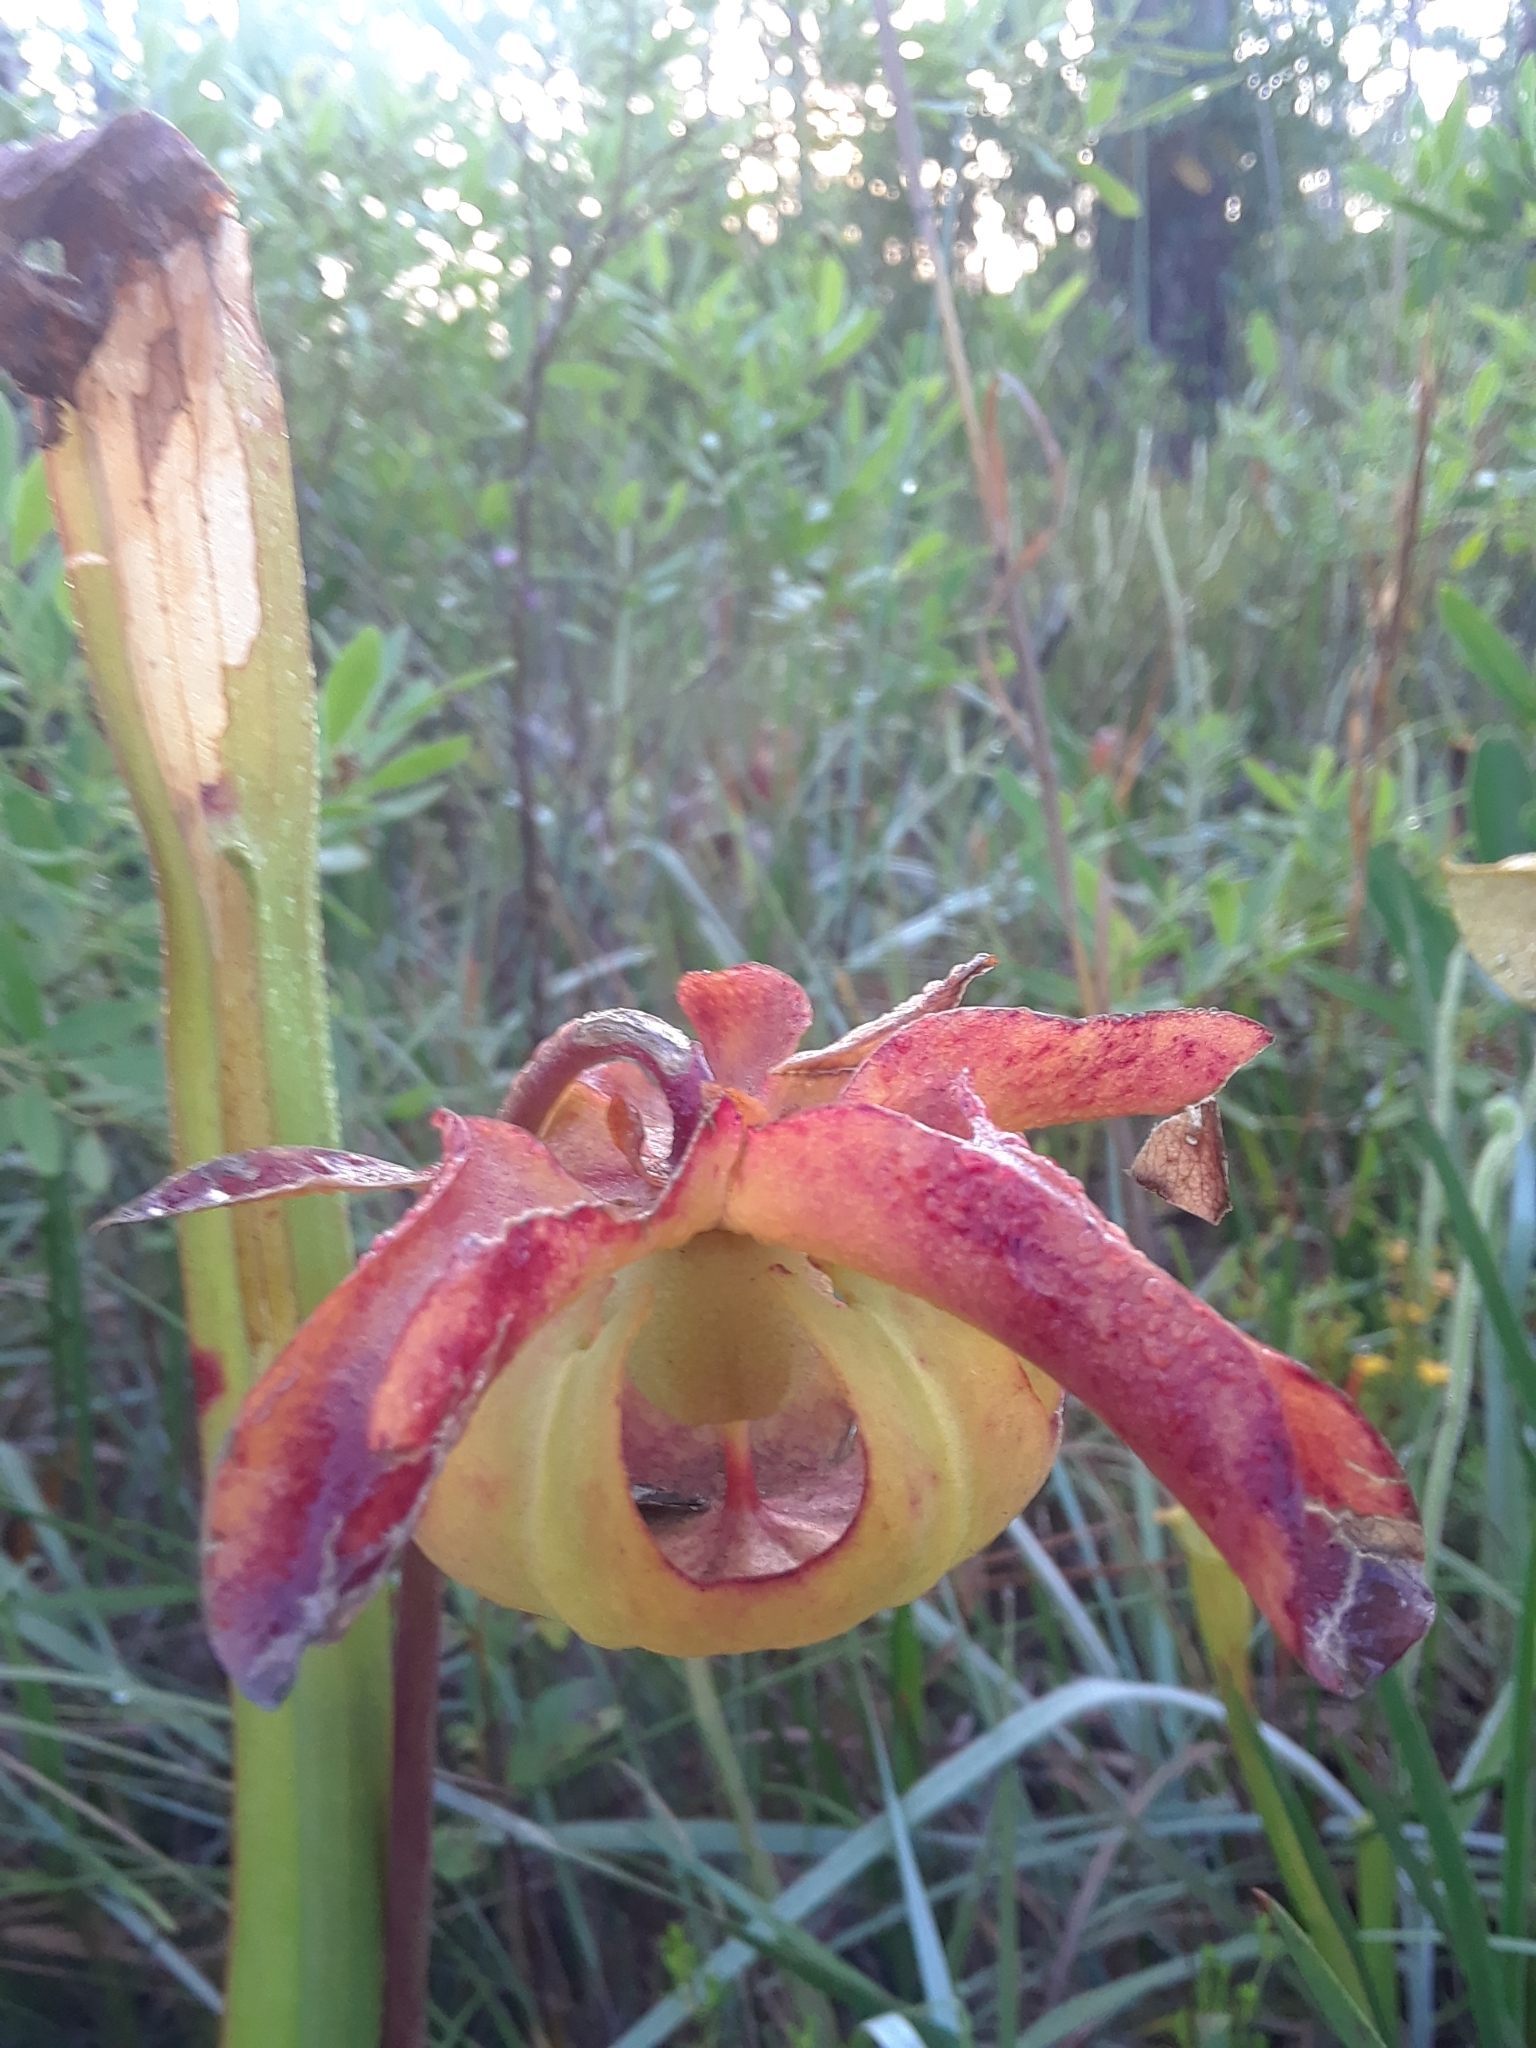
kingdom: Plantae
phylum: Tracheophyta
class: Magnoliopsida
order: Ericales
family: Sarraceniaceae
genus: Sarracenia
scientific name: Sarracenia alata
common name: Yellow trumpets
